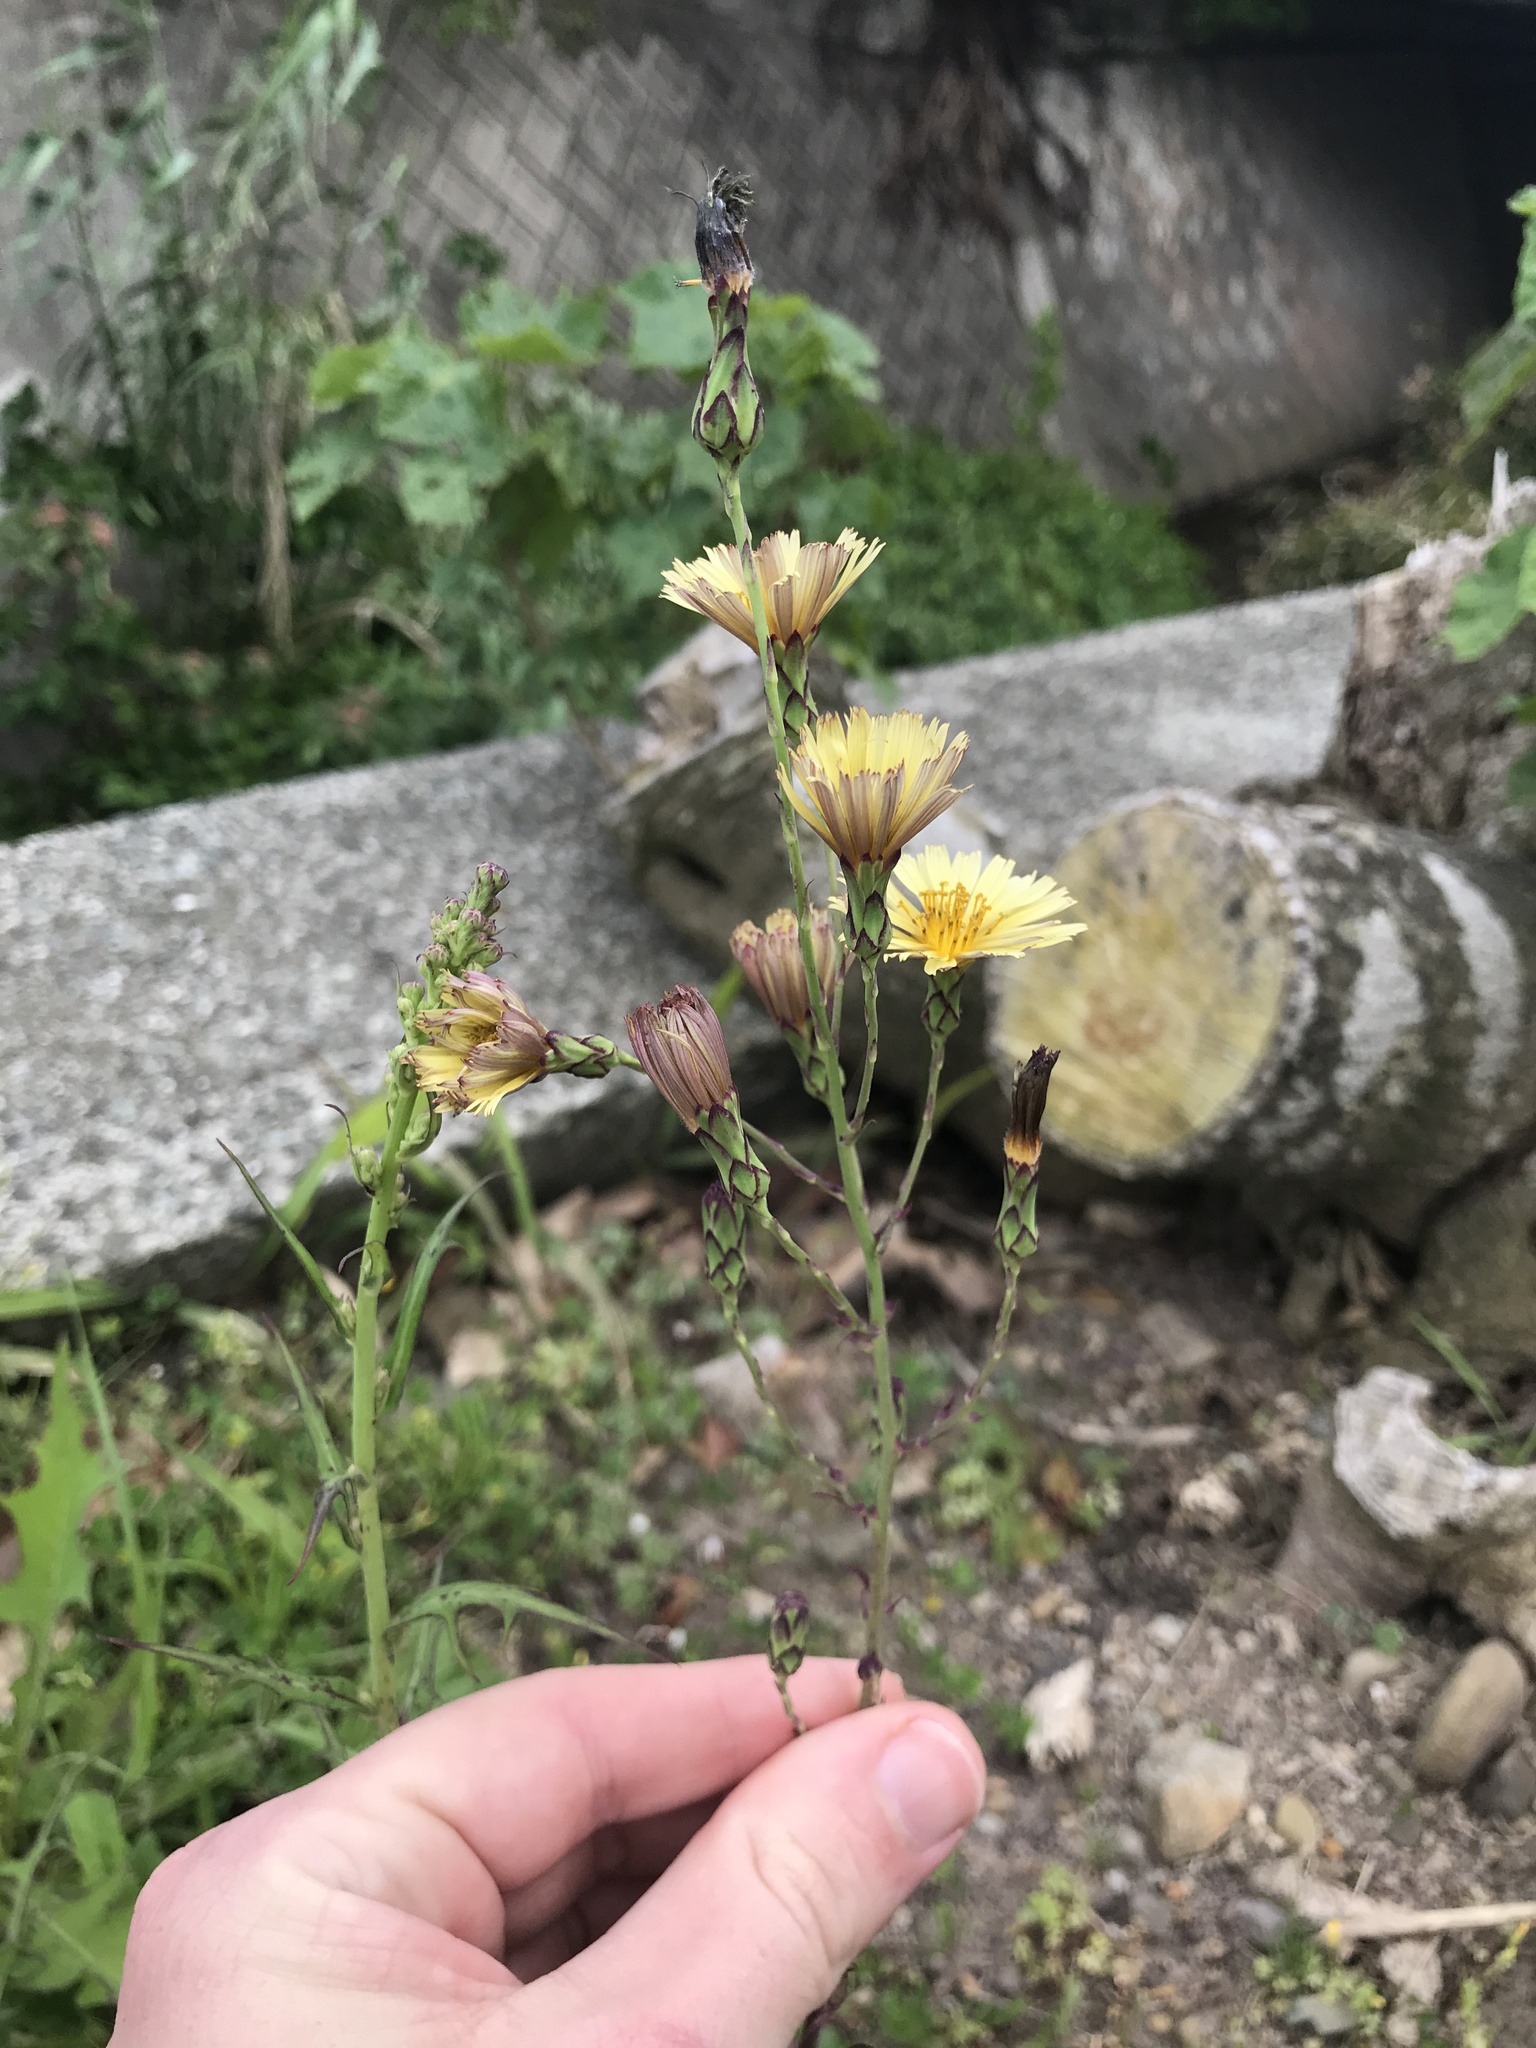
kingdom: Plantae
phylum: Tracheophyta
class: Magnoliopsida
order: Asterales
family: Asteraceae
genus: Lactuca
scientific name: Lactuca indica
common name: Wild lettuce
